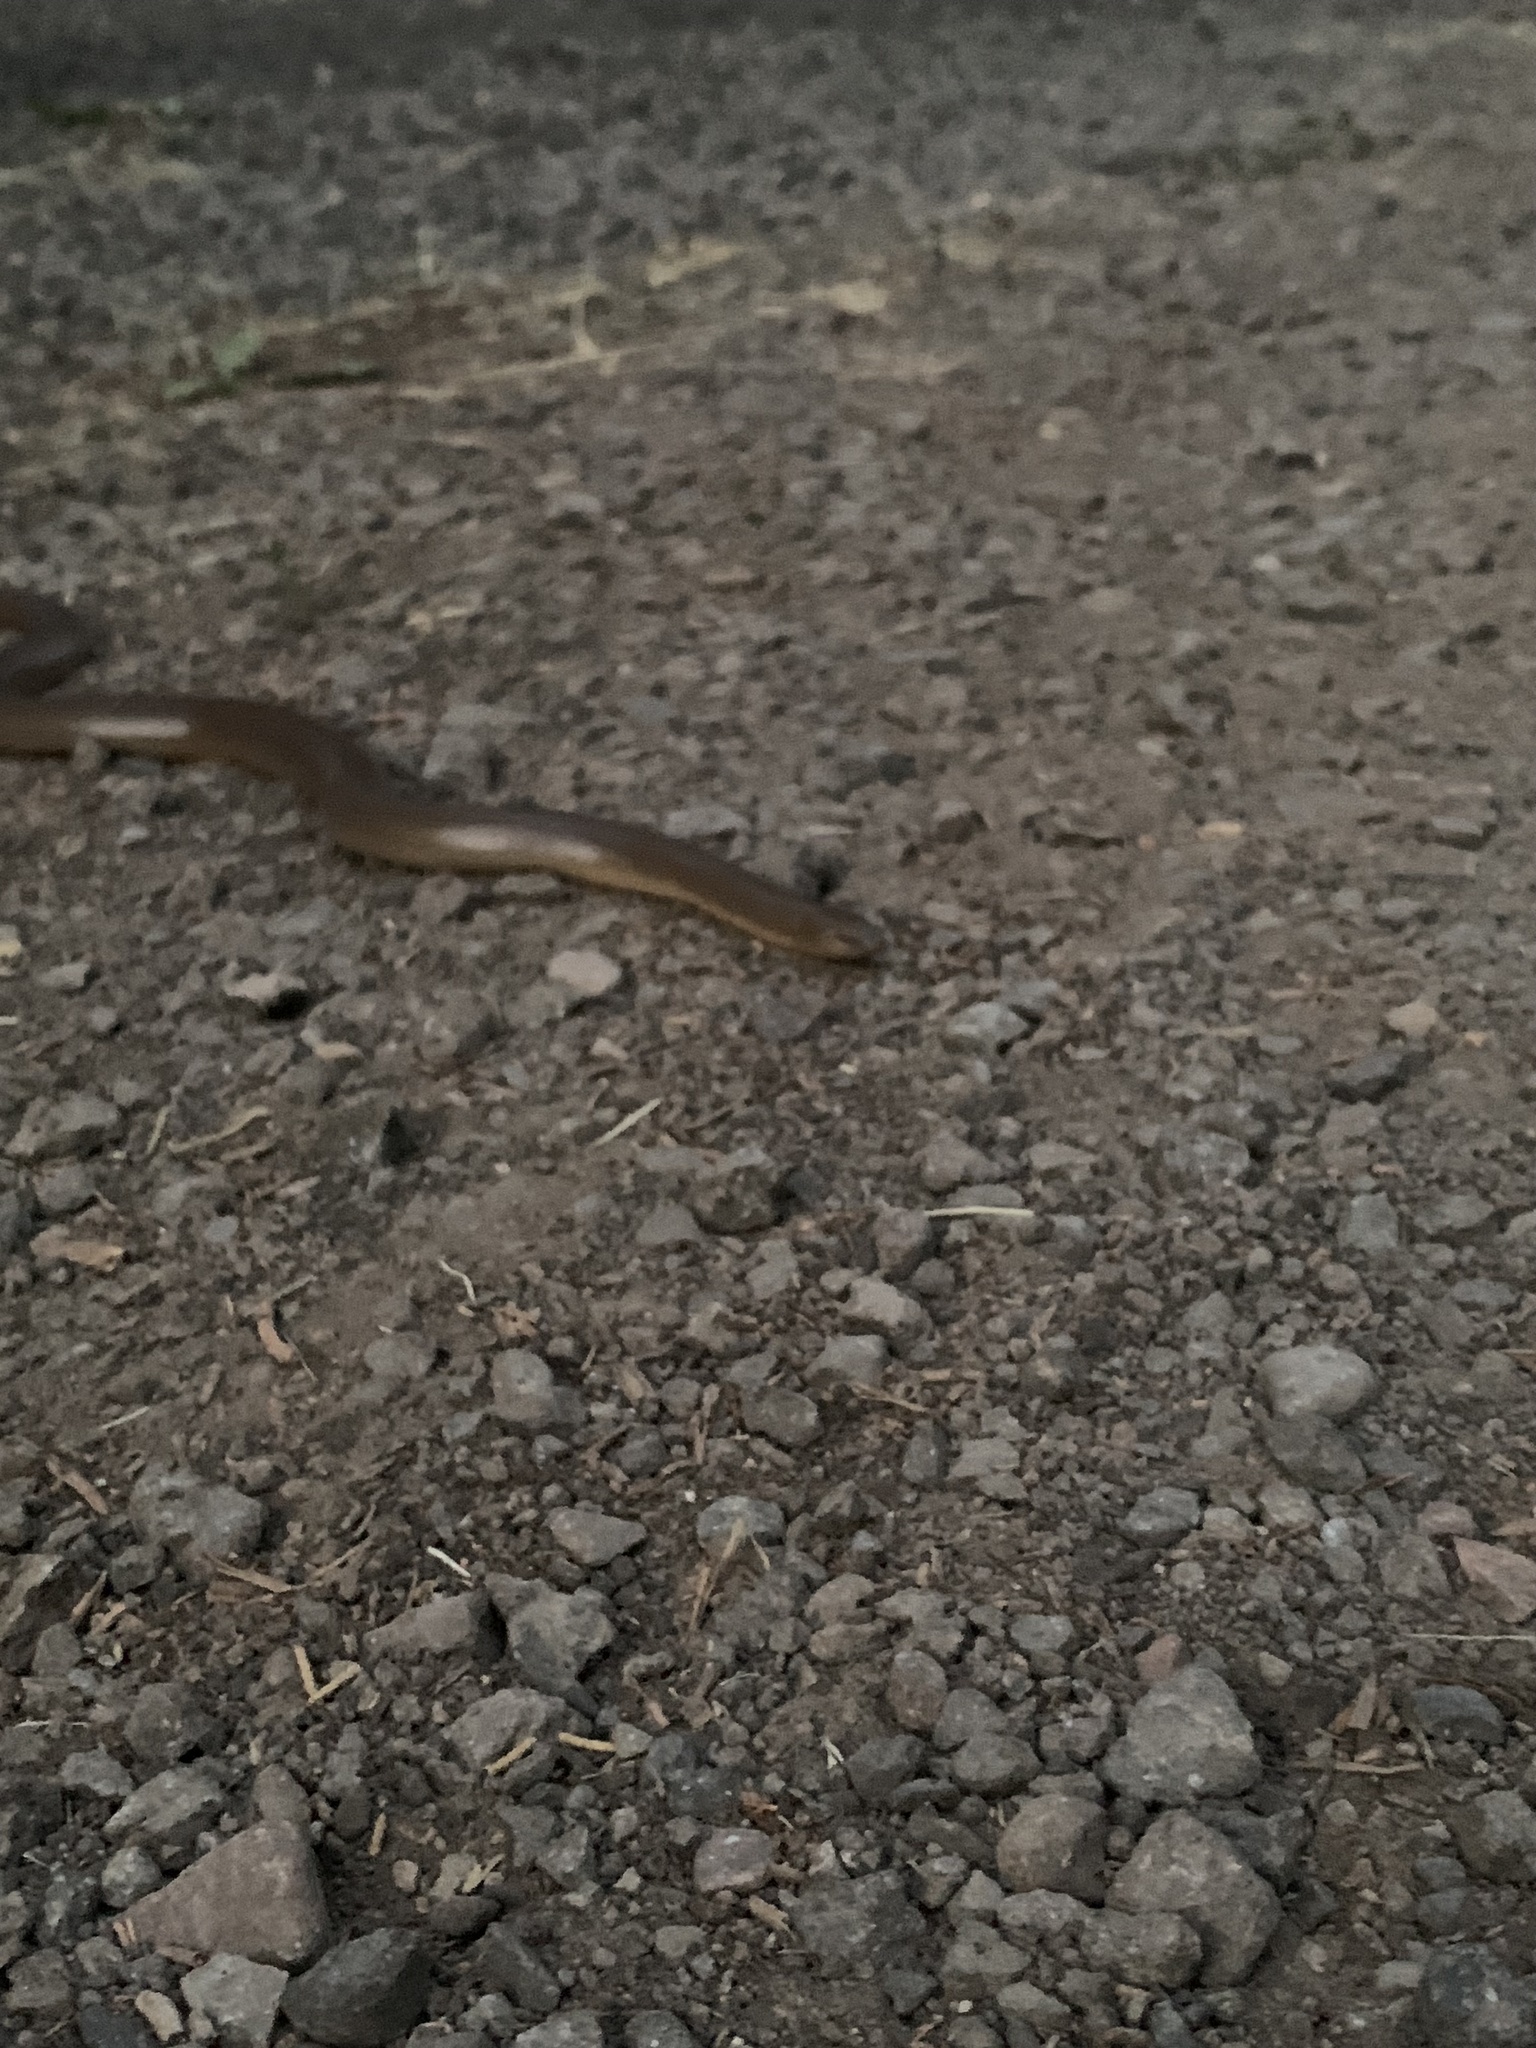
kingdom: Animalia
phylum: Chordata
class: Squamata
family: Boidae
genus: Charina
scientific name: Charina bottae
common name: Northern rubber boa
